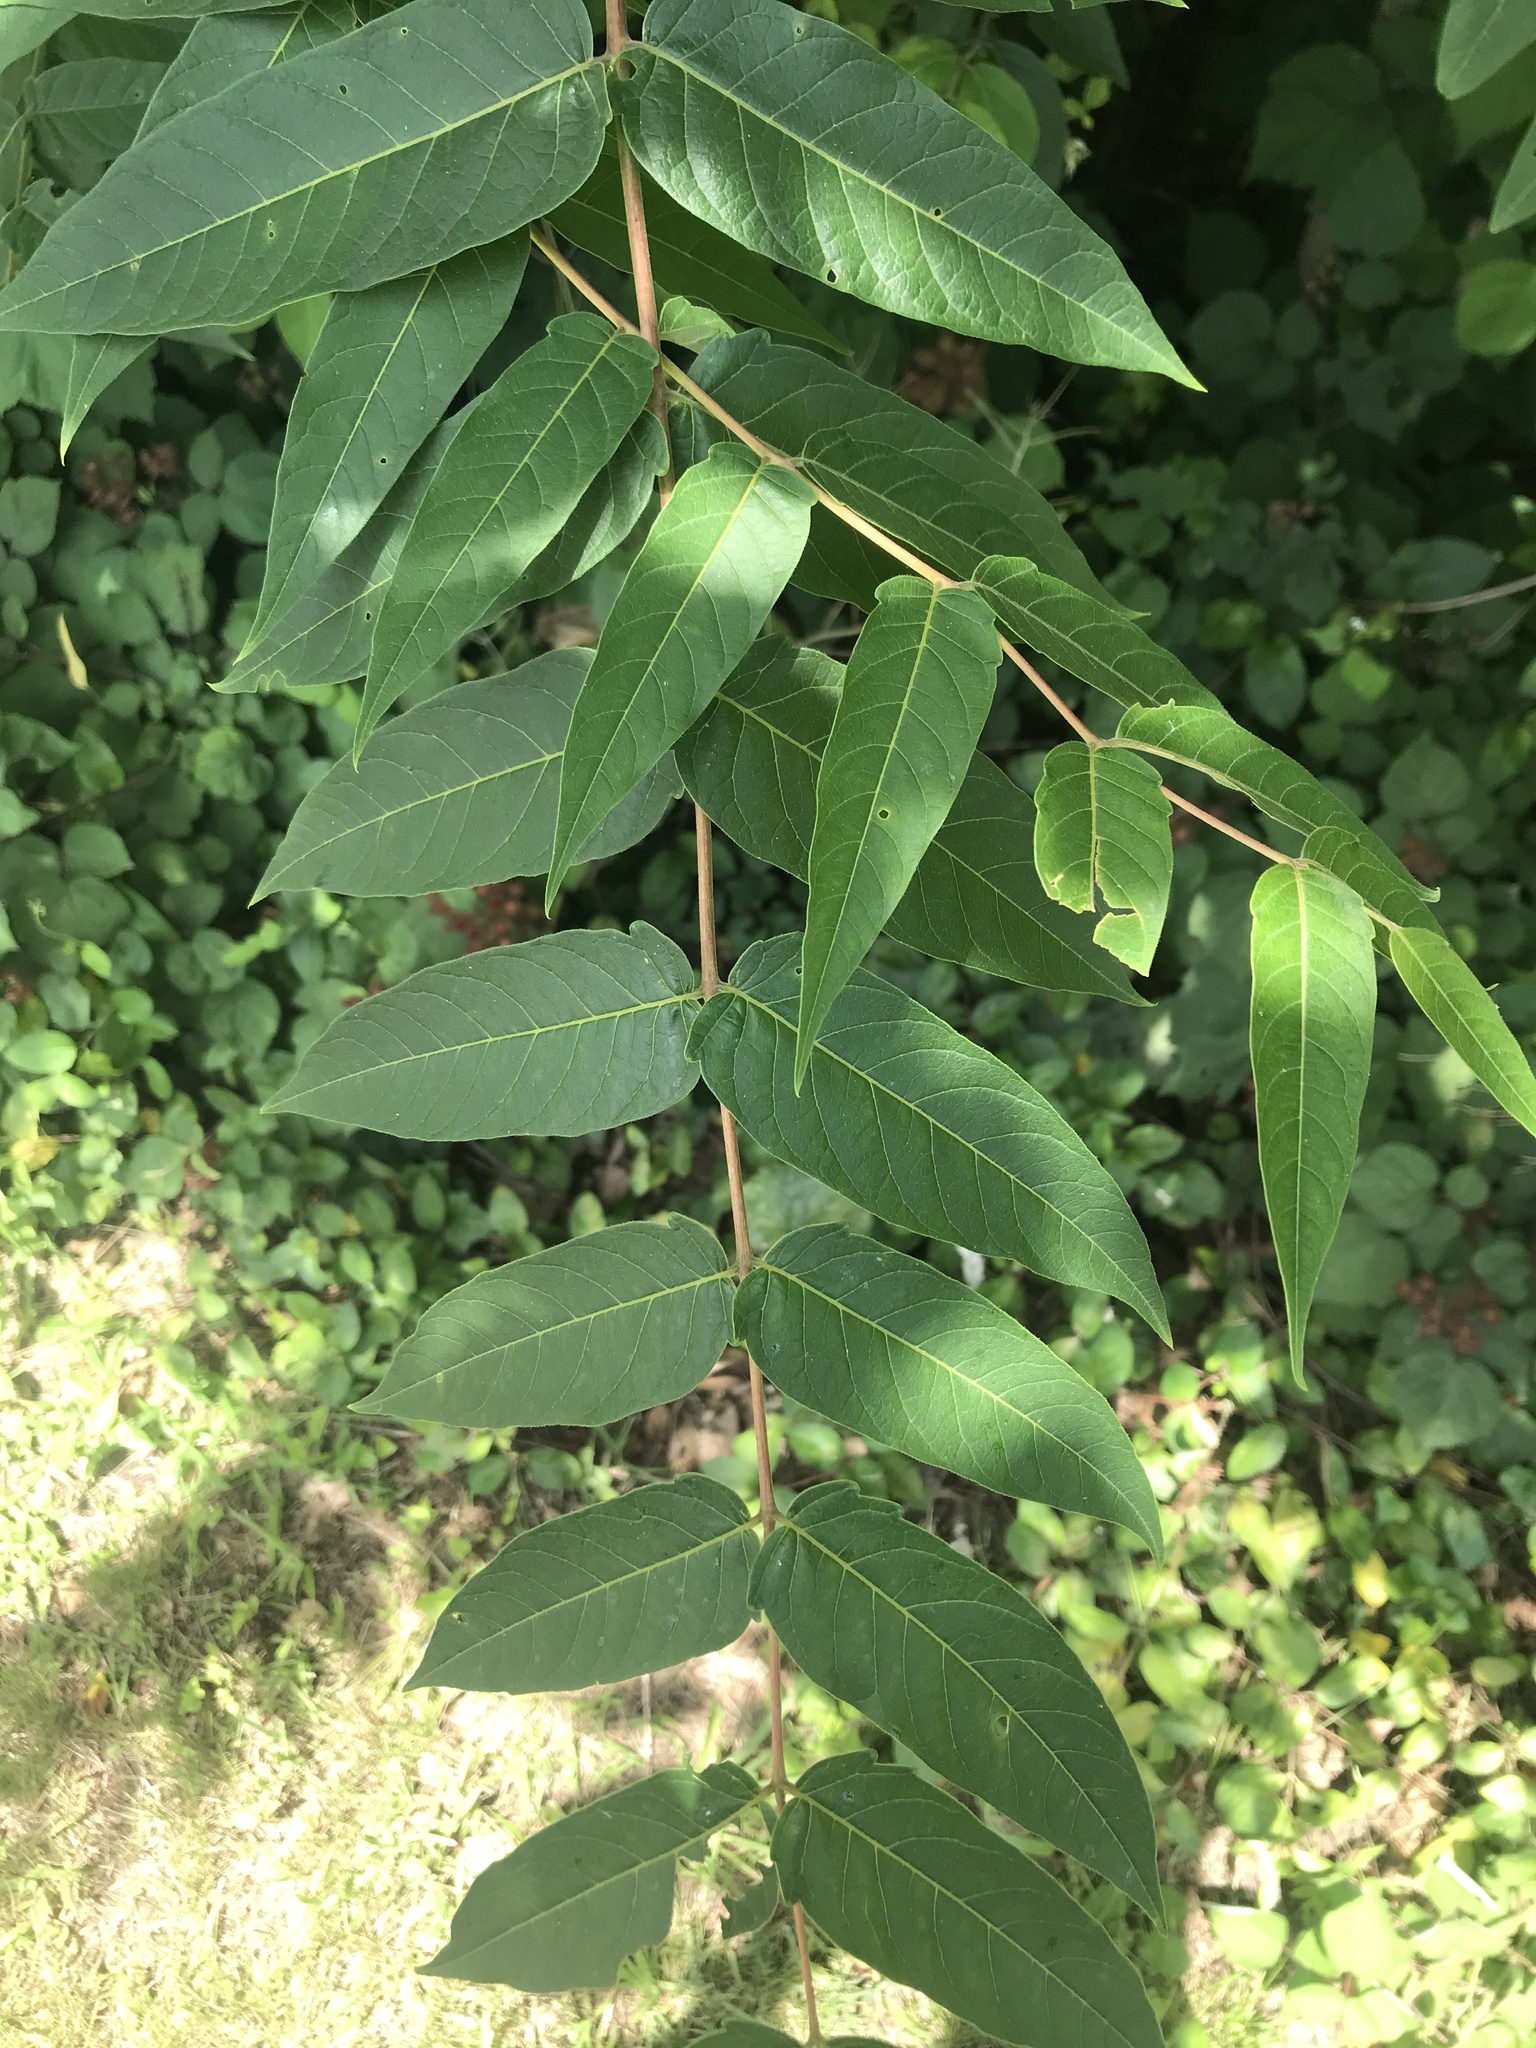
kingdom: Plantae
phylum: Tracheophyta
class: Magnoliopsida
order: Sapindales
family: Simaroubaceae
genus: Ailanthus
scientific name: Ailanthus altissima
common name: Tree-of-heaven
